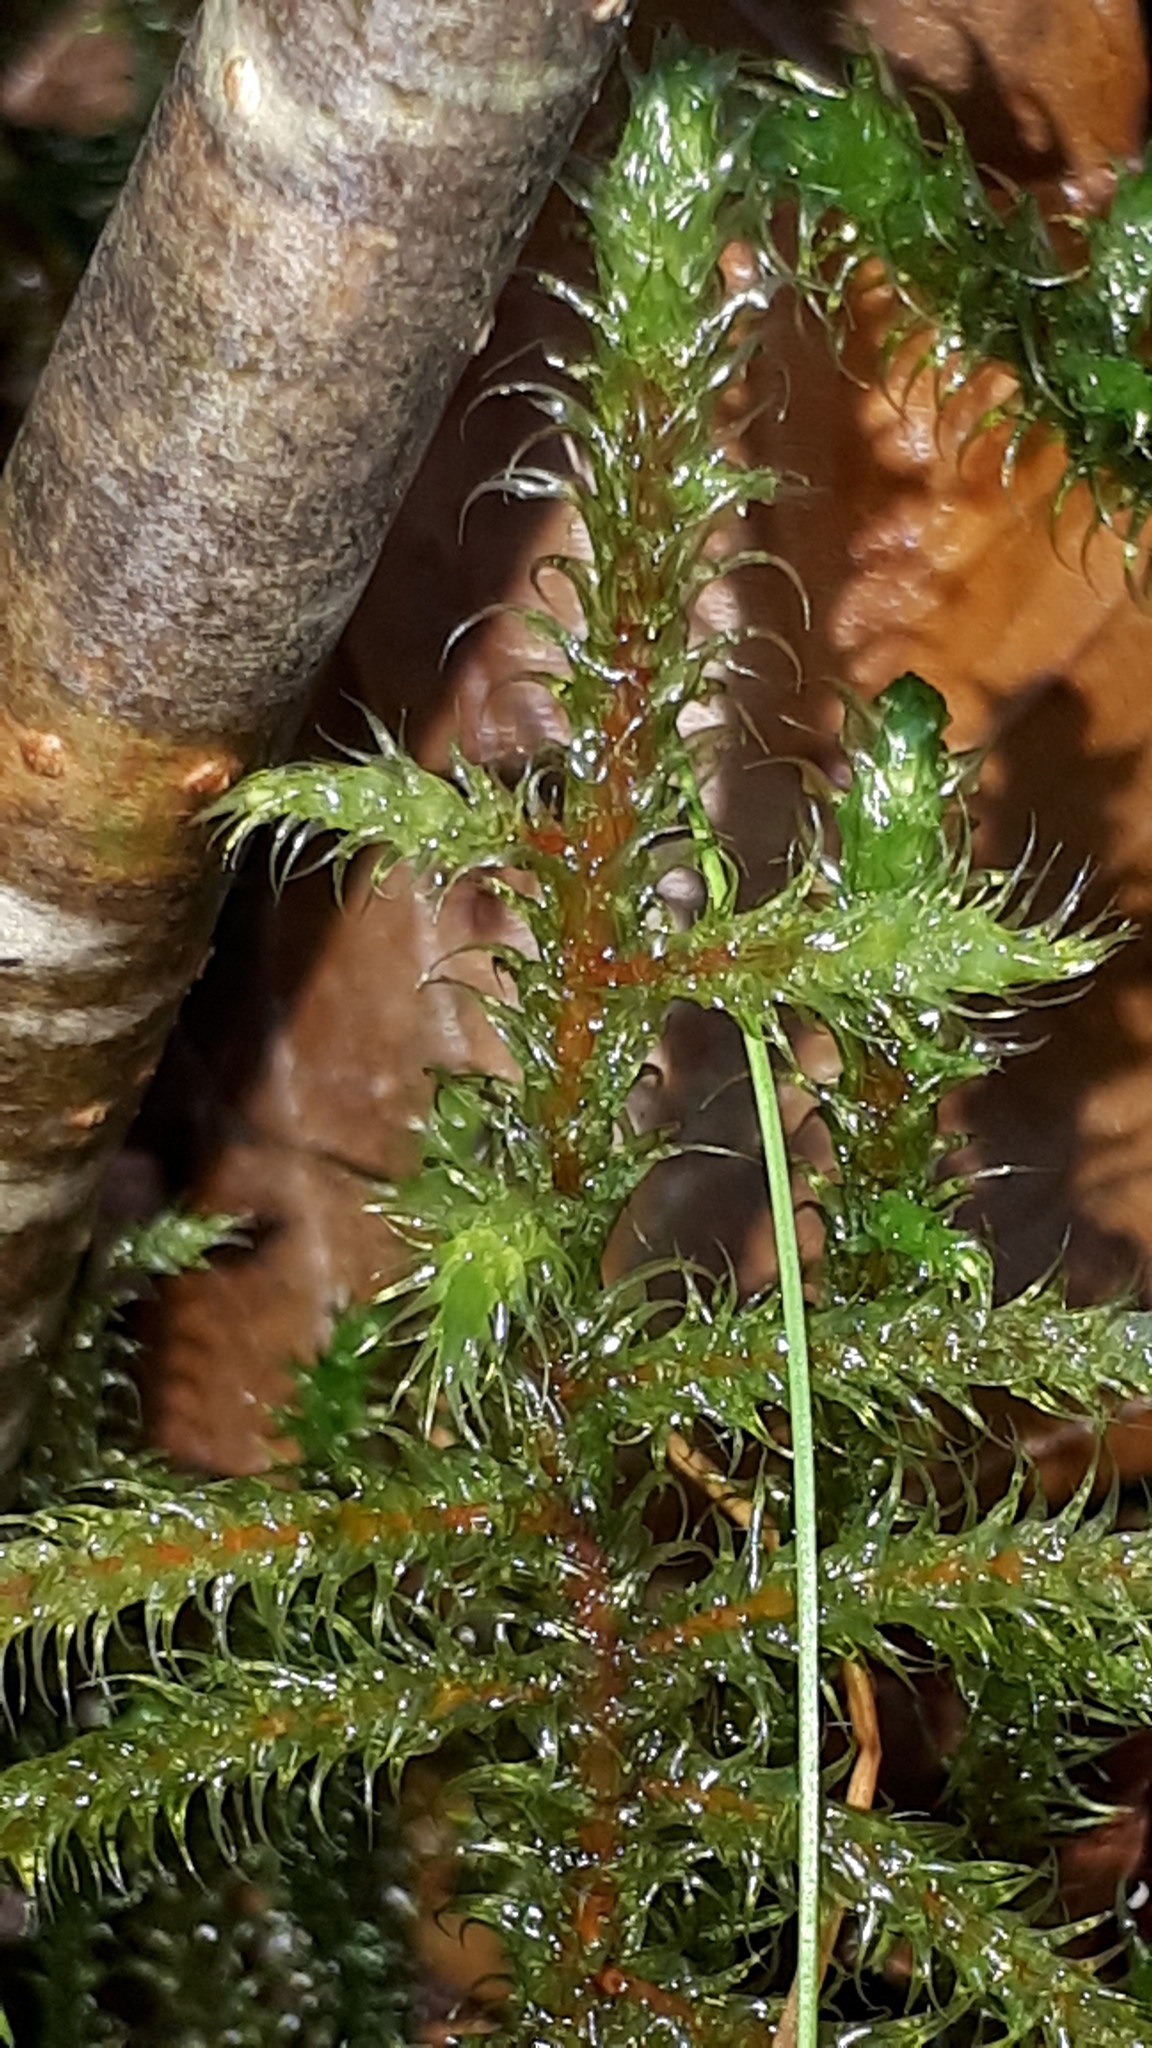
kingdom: Plantae
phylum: Bryophyta
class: Bryopsida
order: Hypnales
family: Hylocomiaceae
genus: Rhytidiadelphus
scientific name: Rhytidiadelphus loreus
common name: Lanky moss
